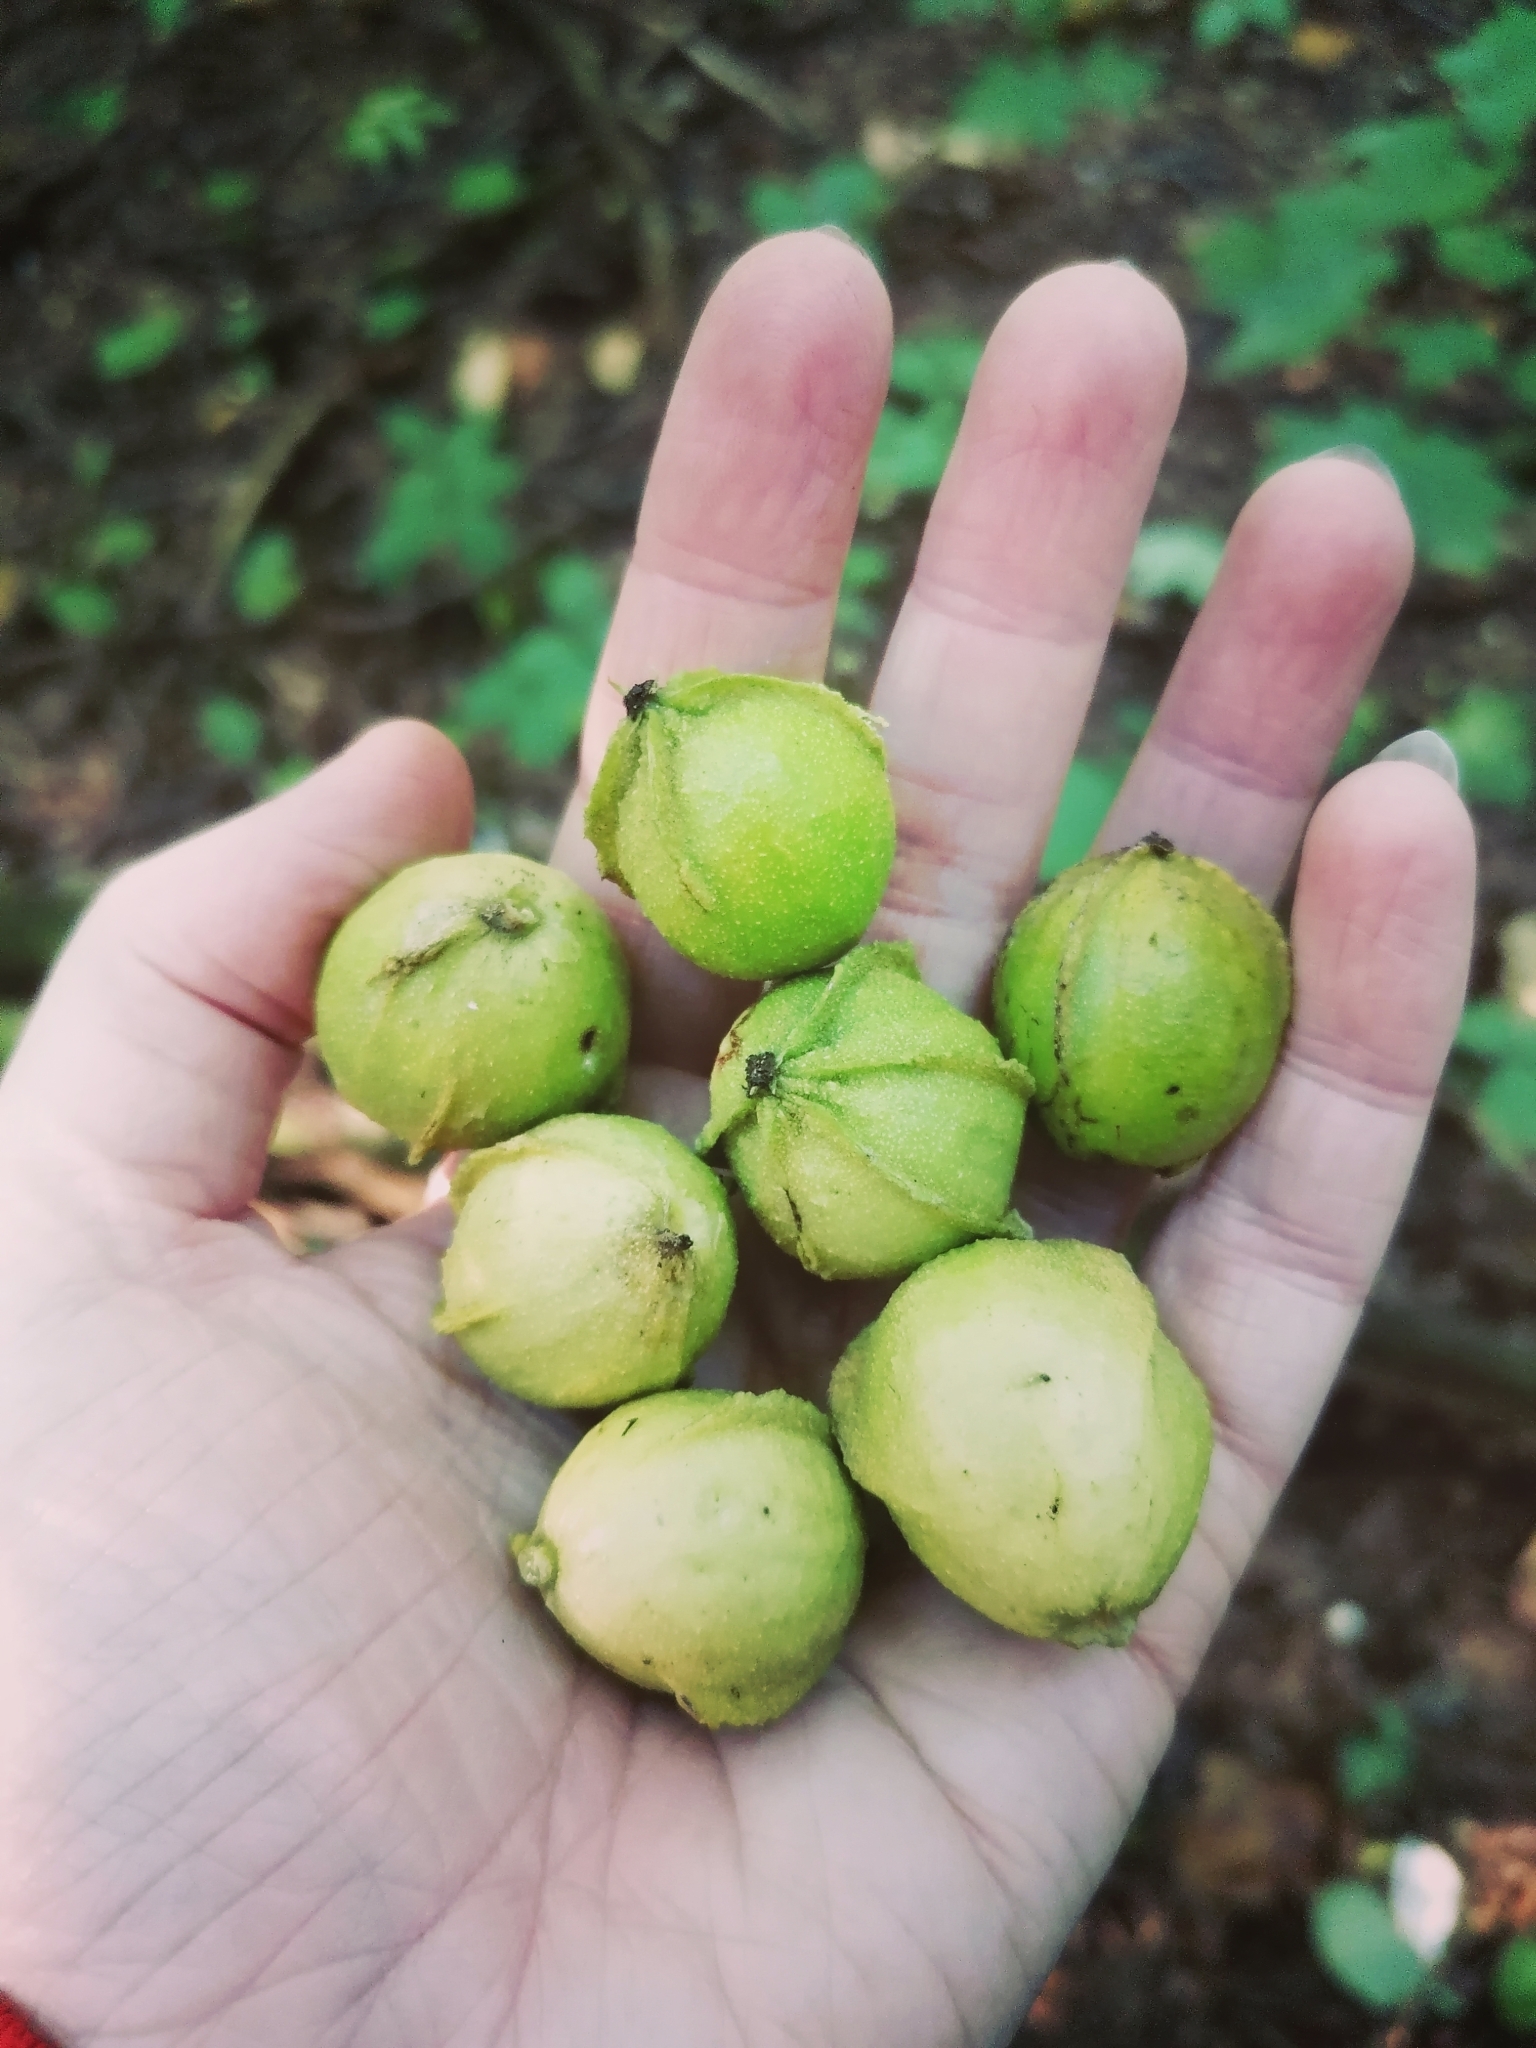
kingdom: Plantae
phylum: Tracheophyta
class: Magnoliopsida
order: Fagales
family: Juglandaceae
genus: Carya
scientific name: Carya cordiformis
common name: Bitternut hickory
